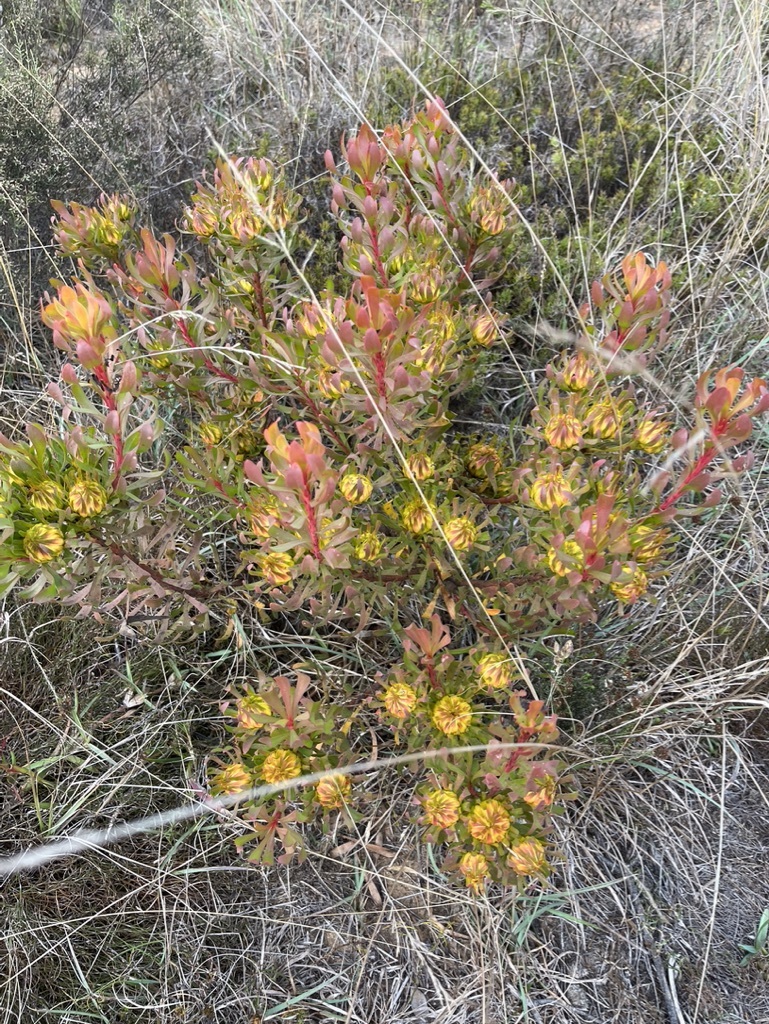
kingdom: Plantae
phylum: Tracheophyta
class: Magnoliopsida
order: Proteales
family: Proteaceae
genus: Aulax
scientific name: Aulax umbellata
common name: Broad-leaf featherbush
